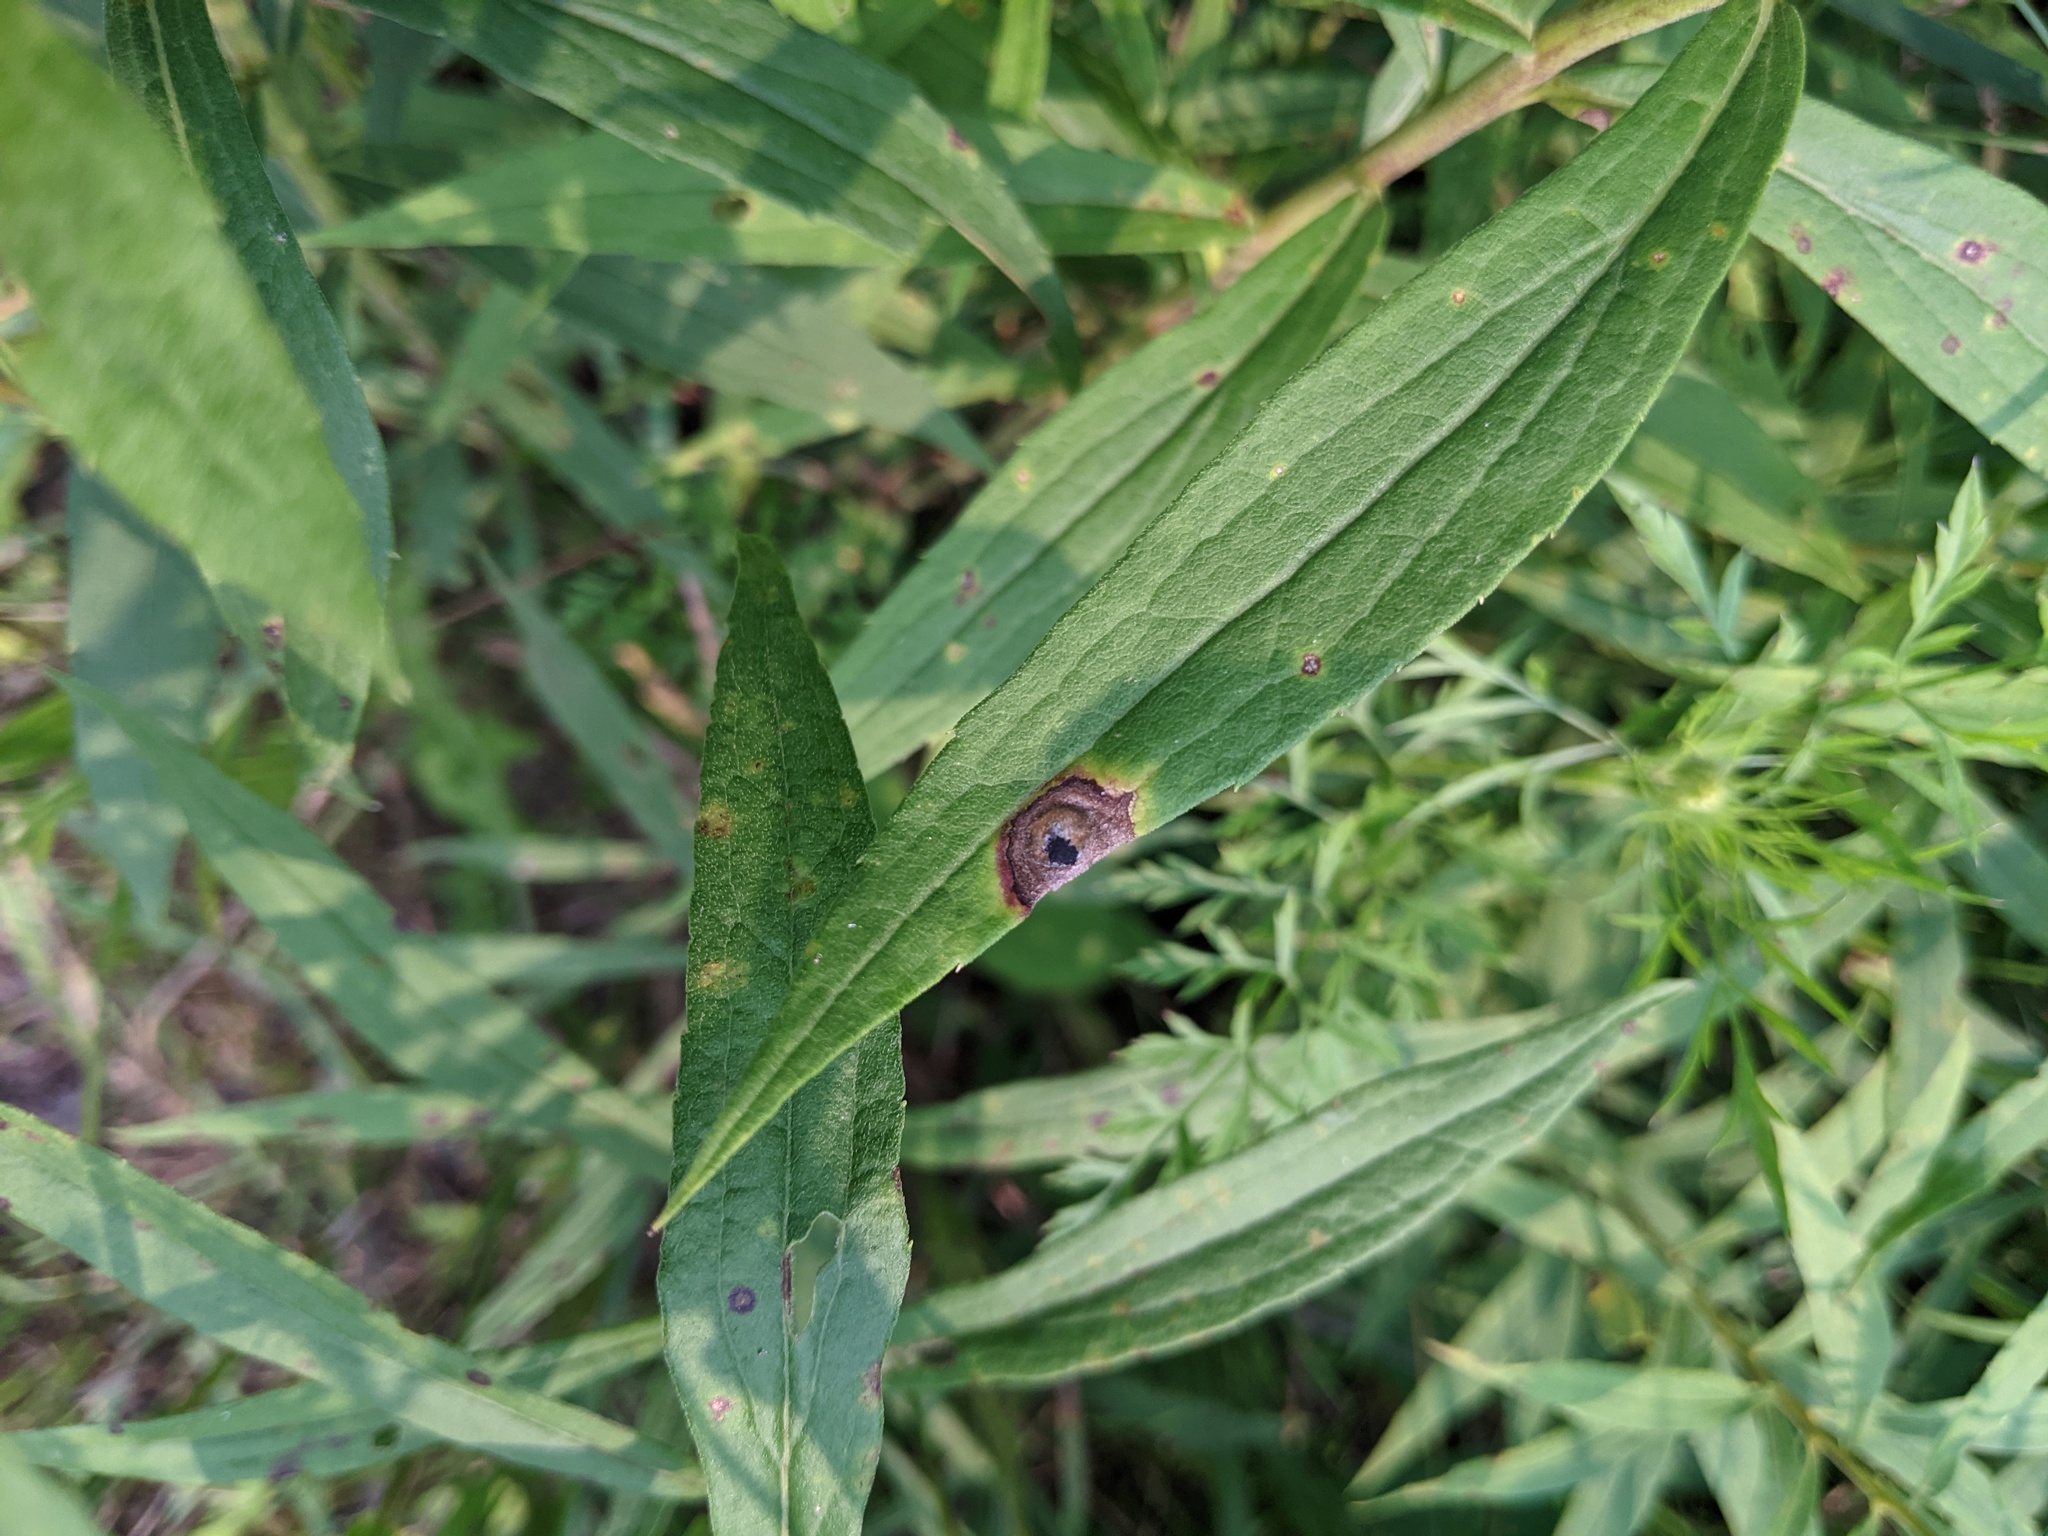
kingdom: Animalia
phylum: Arthropoda
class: Insecta
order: Diptera
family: Cecidomyiidae
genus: Asteromyia
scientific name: Asteromyia carbonifera
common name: Carbonifera goldenrod gall midge
